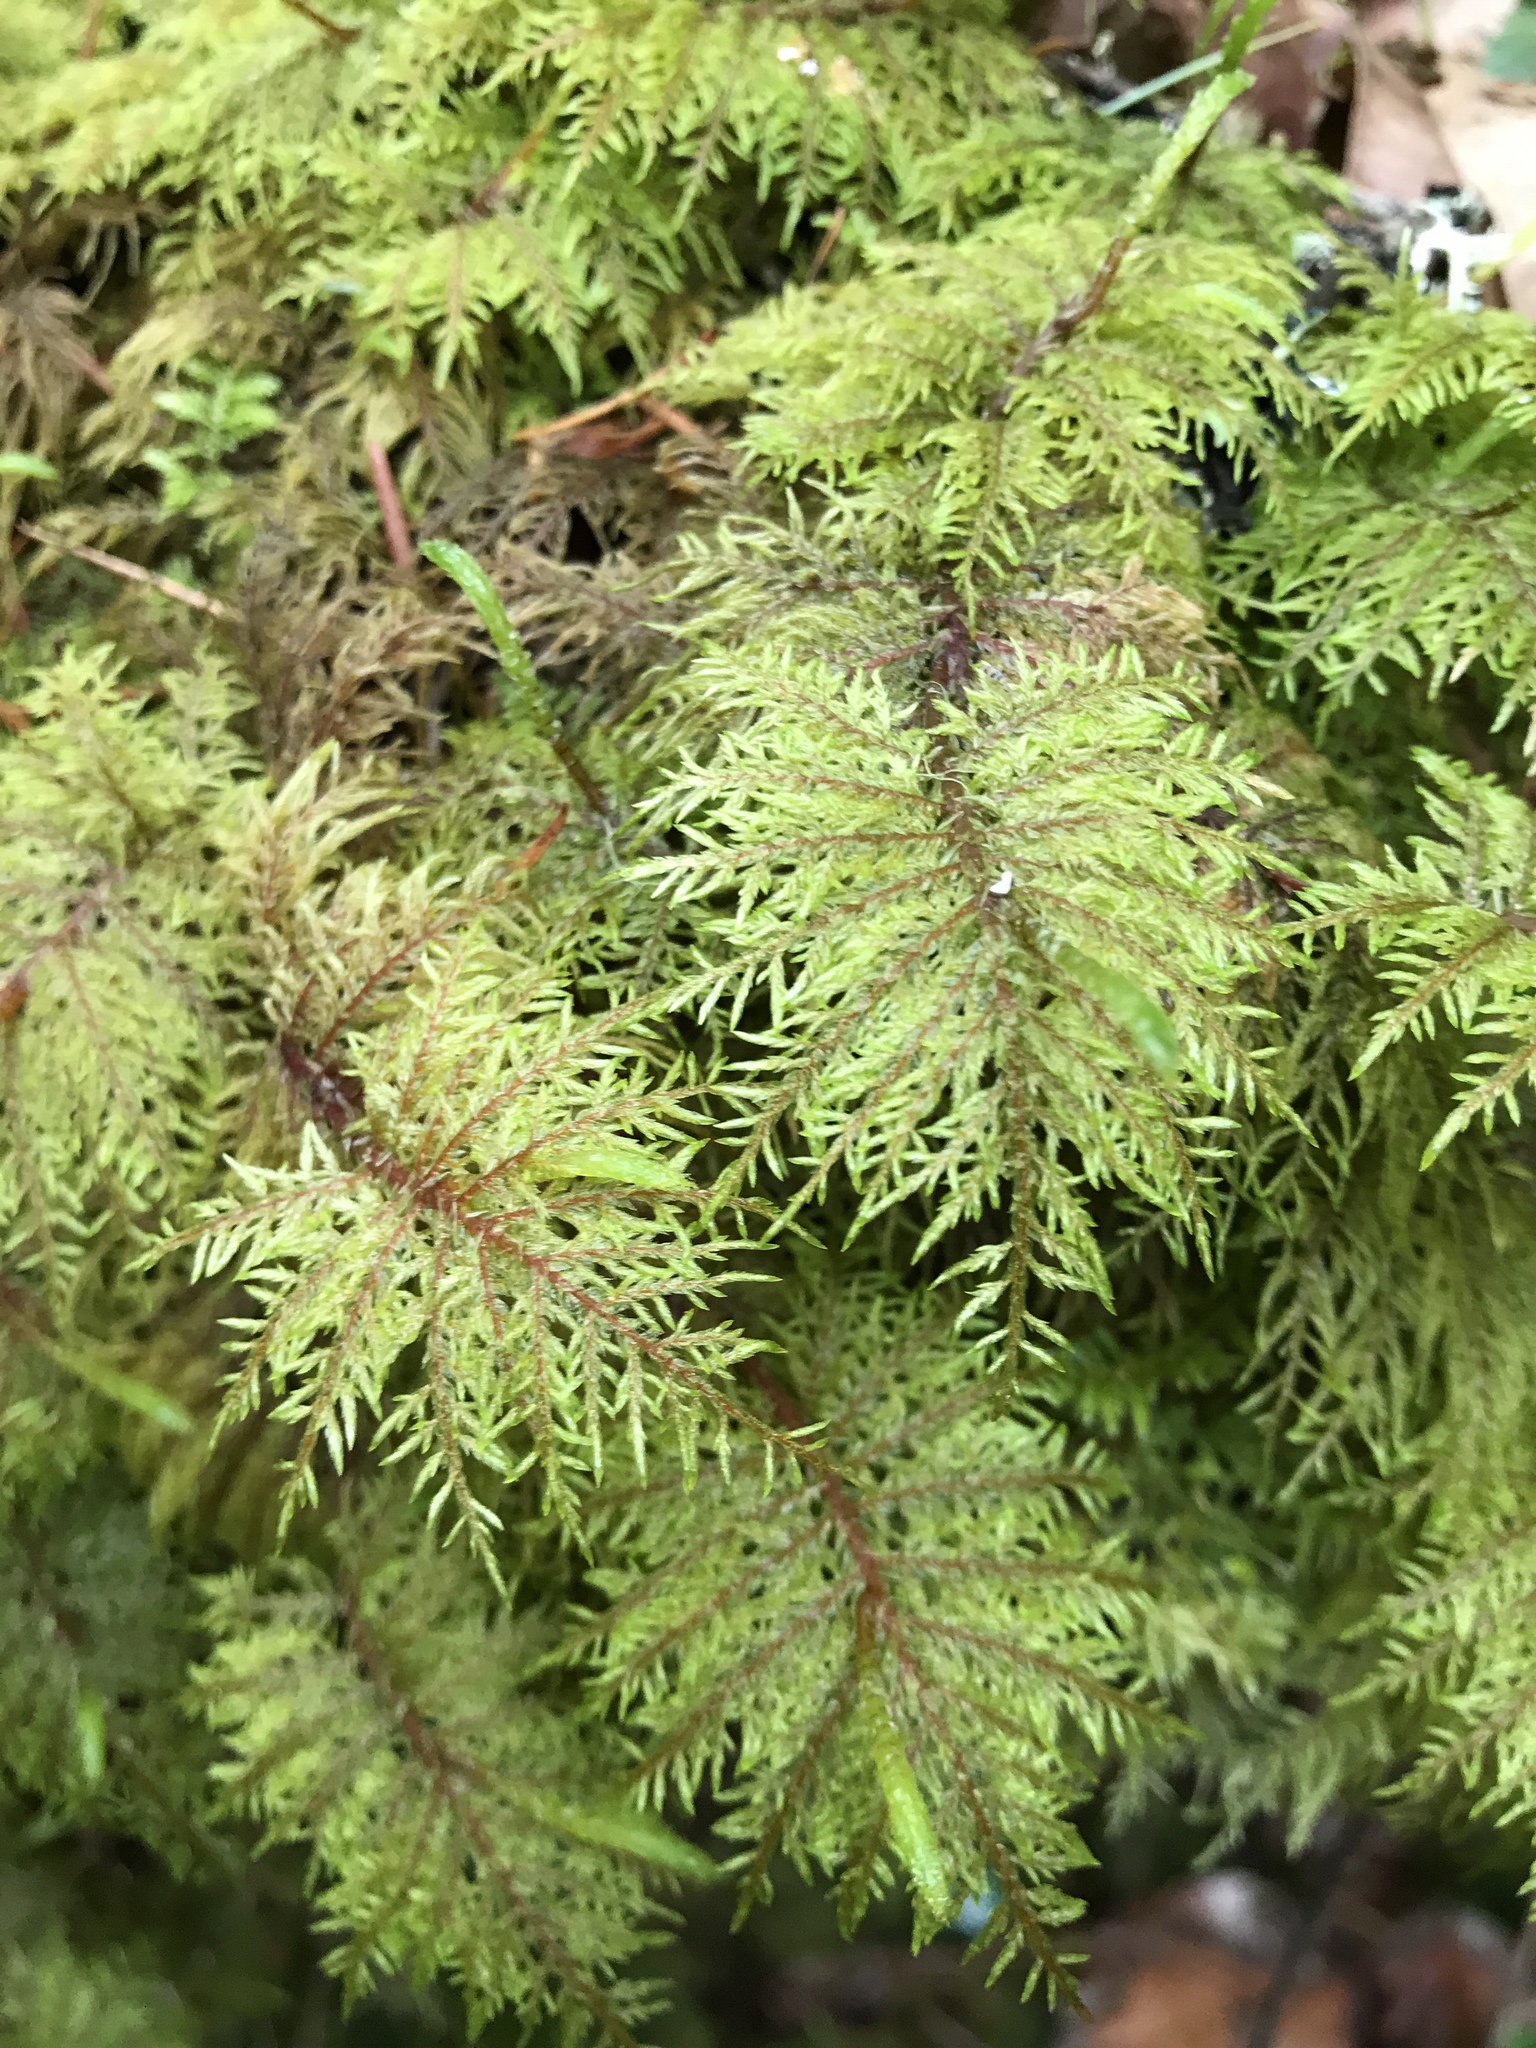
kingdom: Plantae
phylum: Bryophyta
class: Bryopsida
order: Hypnales
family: Hylocomiaceae
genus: Hylocomium
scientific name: Hylocomium splendens
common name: Stairstep moss
